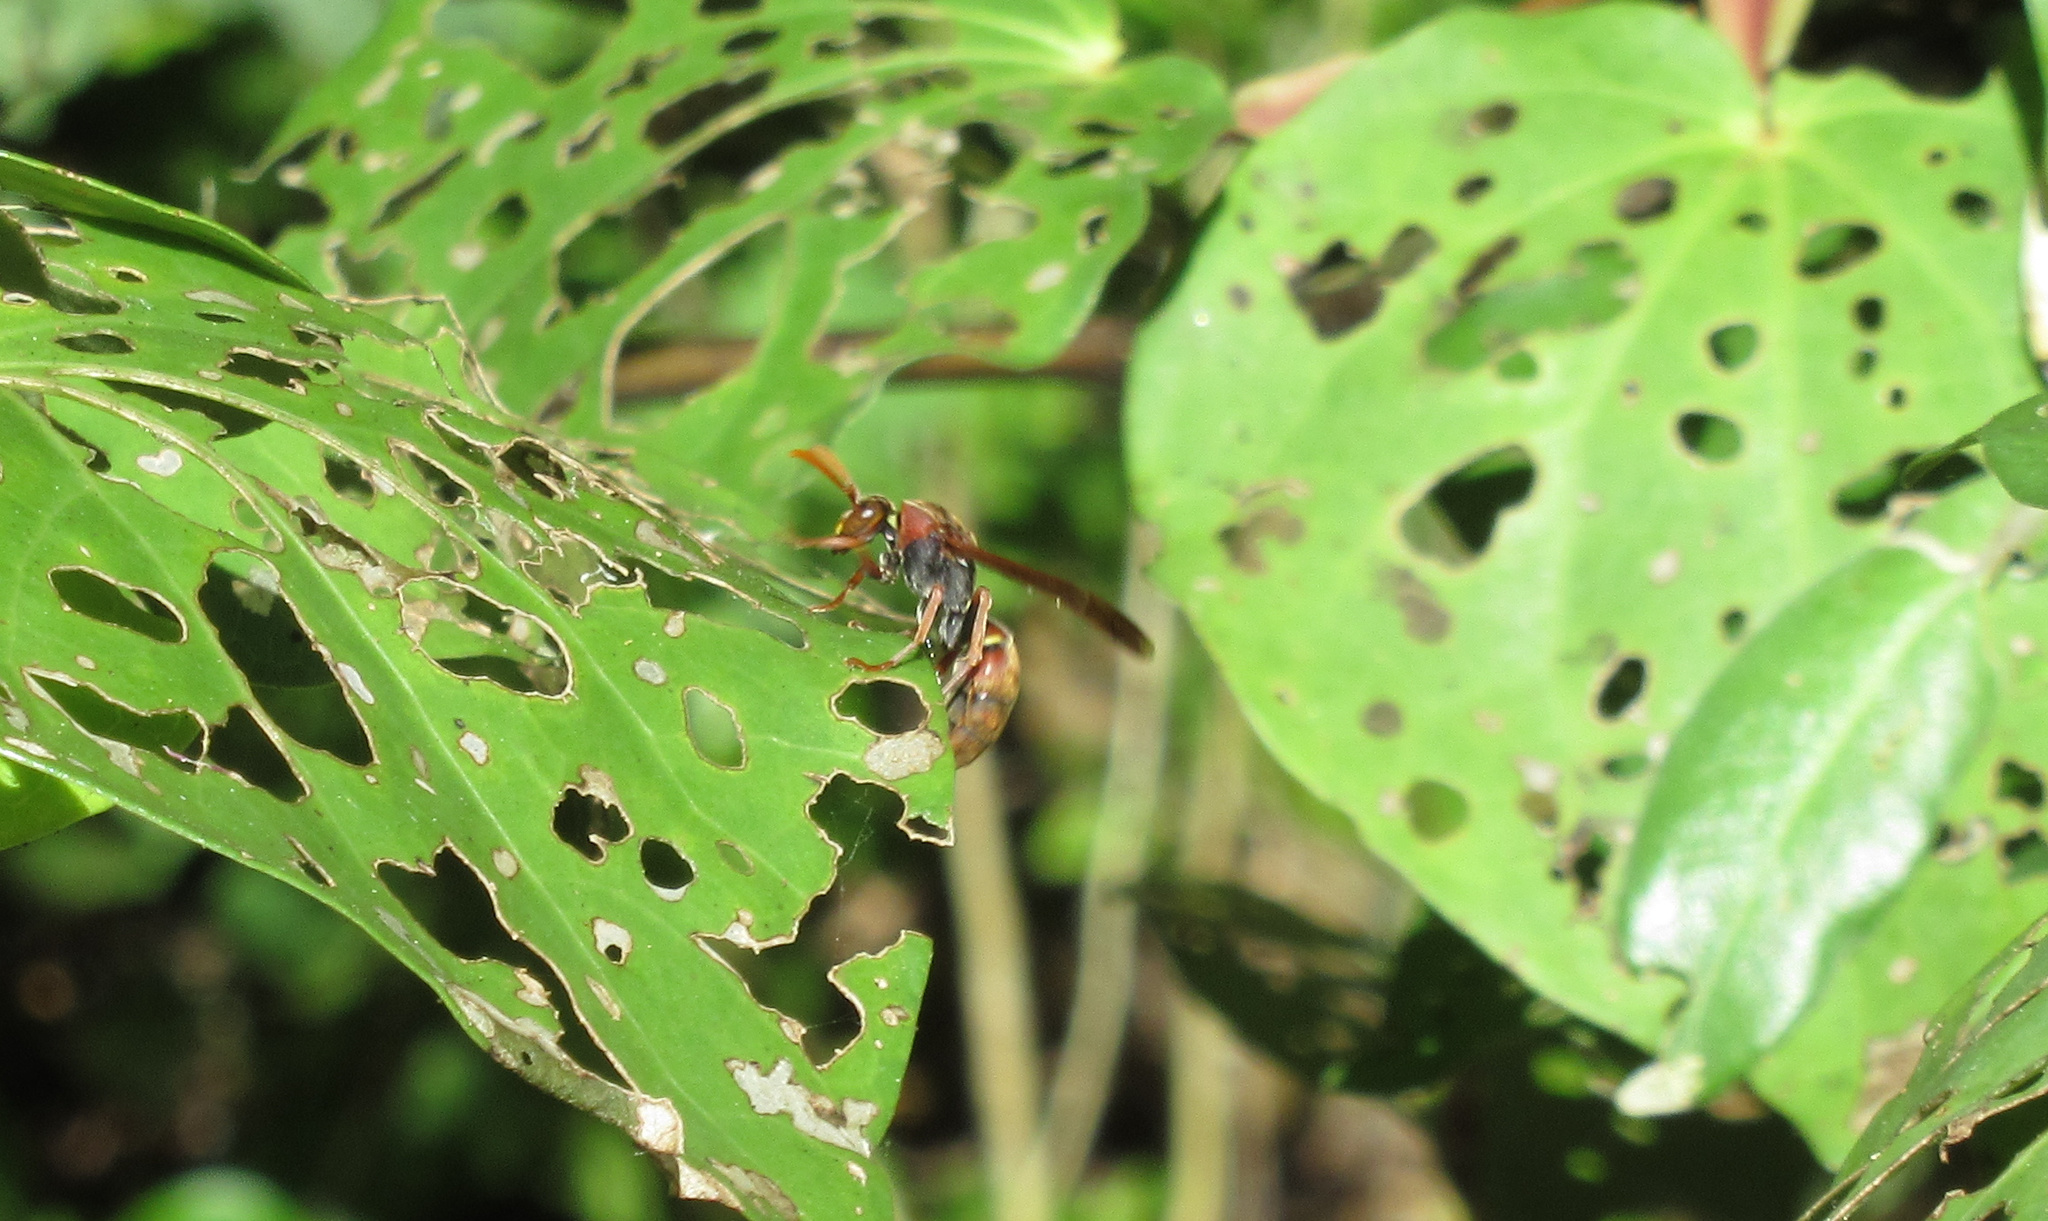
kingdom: Animalia
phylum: Arthropoda
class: Insecta
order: Hymenoptera
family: Eumenidae
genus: Polistes
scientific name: Polistes humilis
